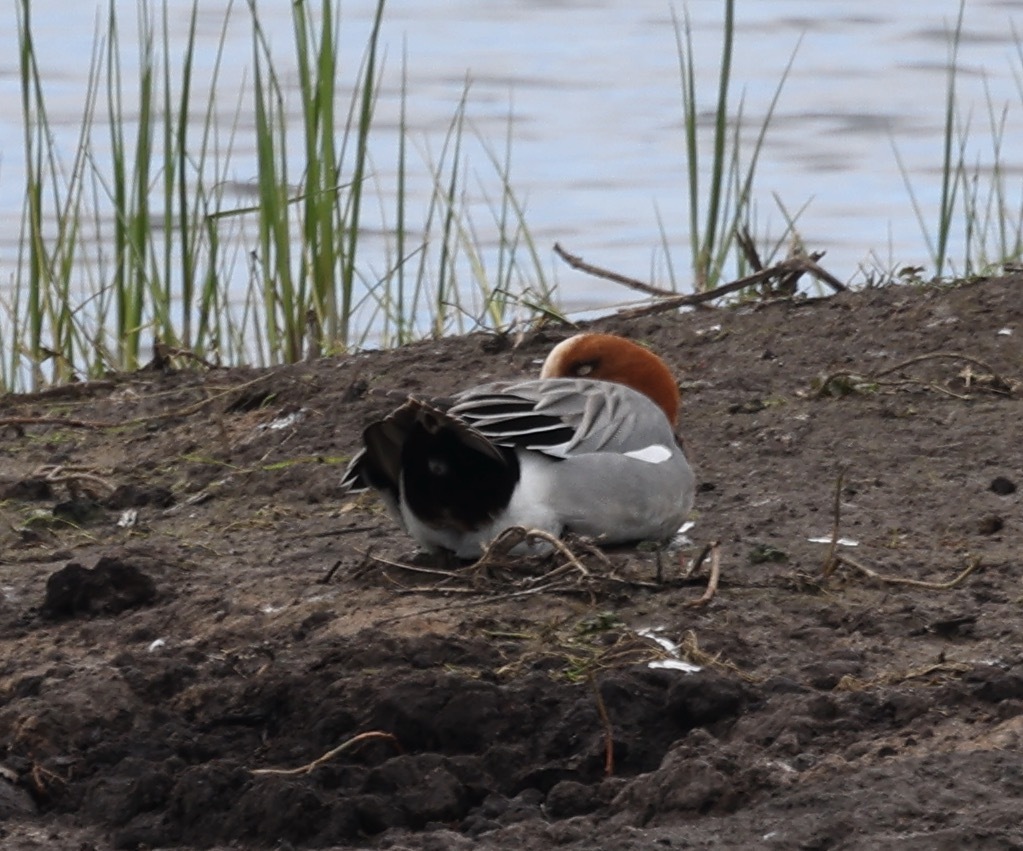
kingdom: Animalia
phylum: Chordata
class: Aves
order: Anseriformes
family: Anatidae
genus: Mareca
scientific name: Mareca penelope
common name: Eurasian wigeon
